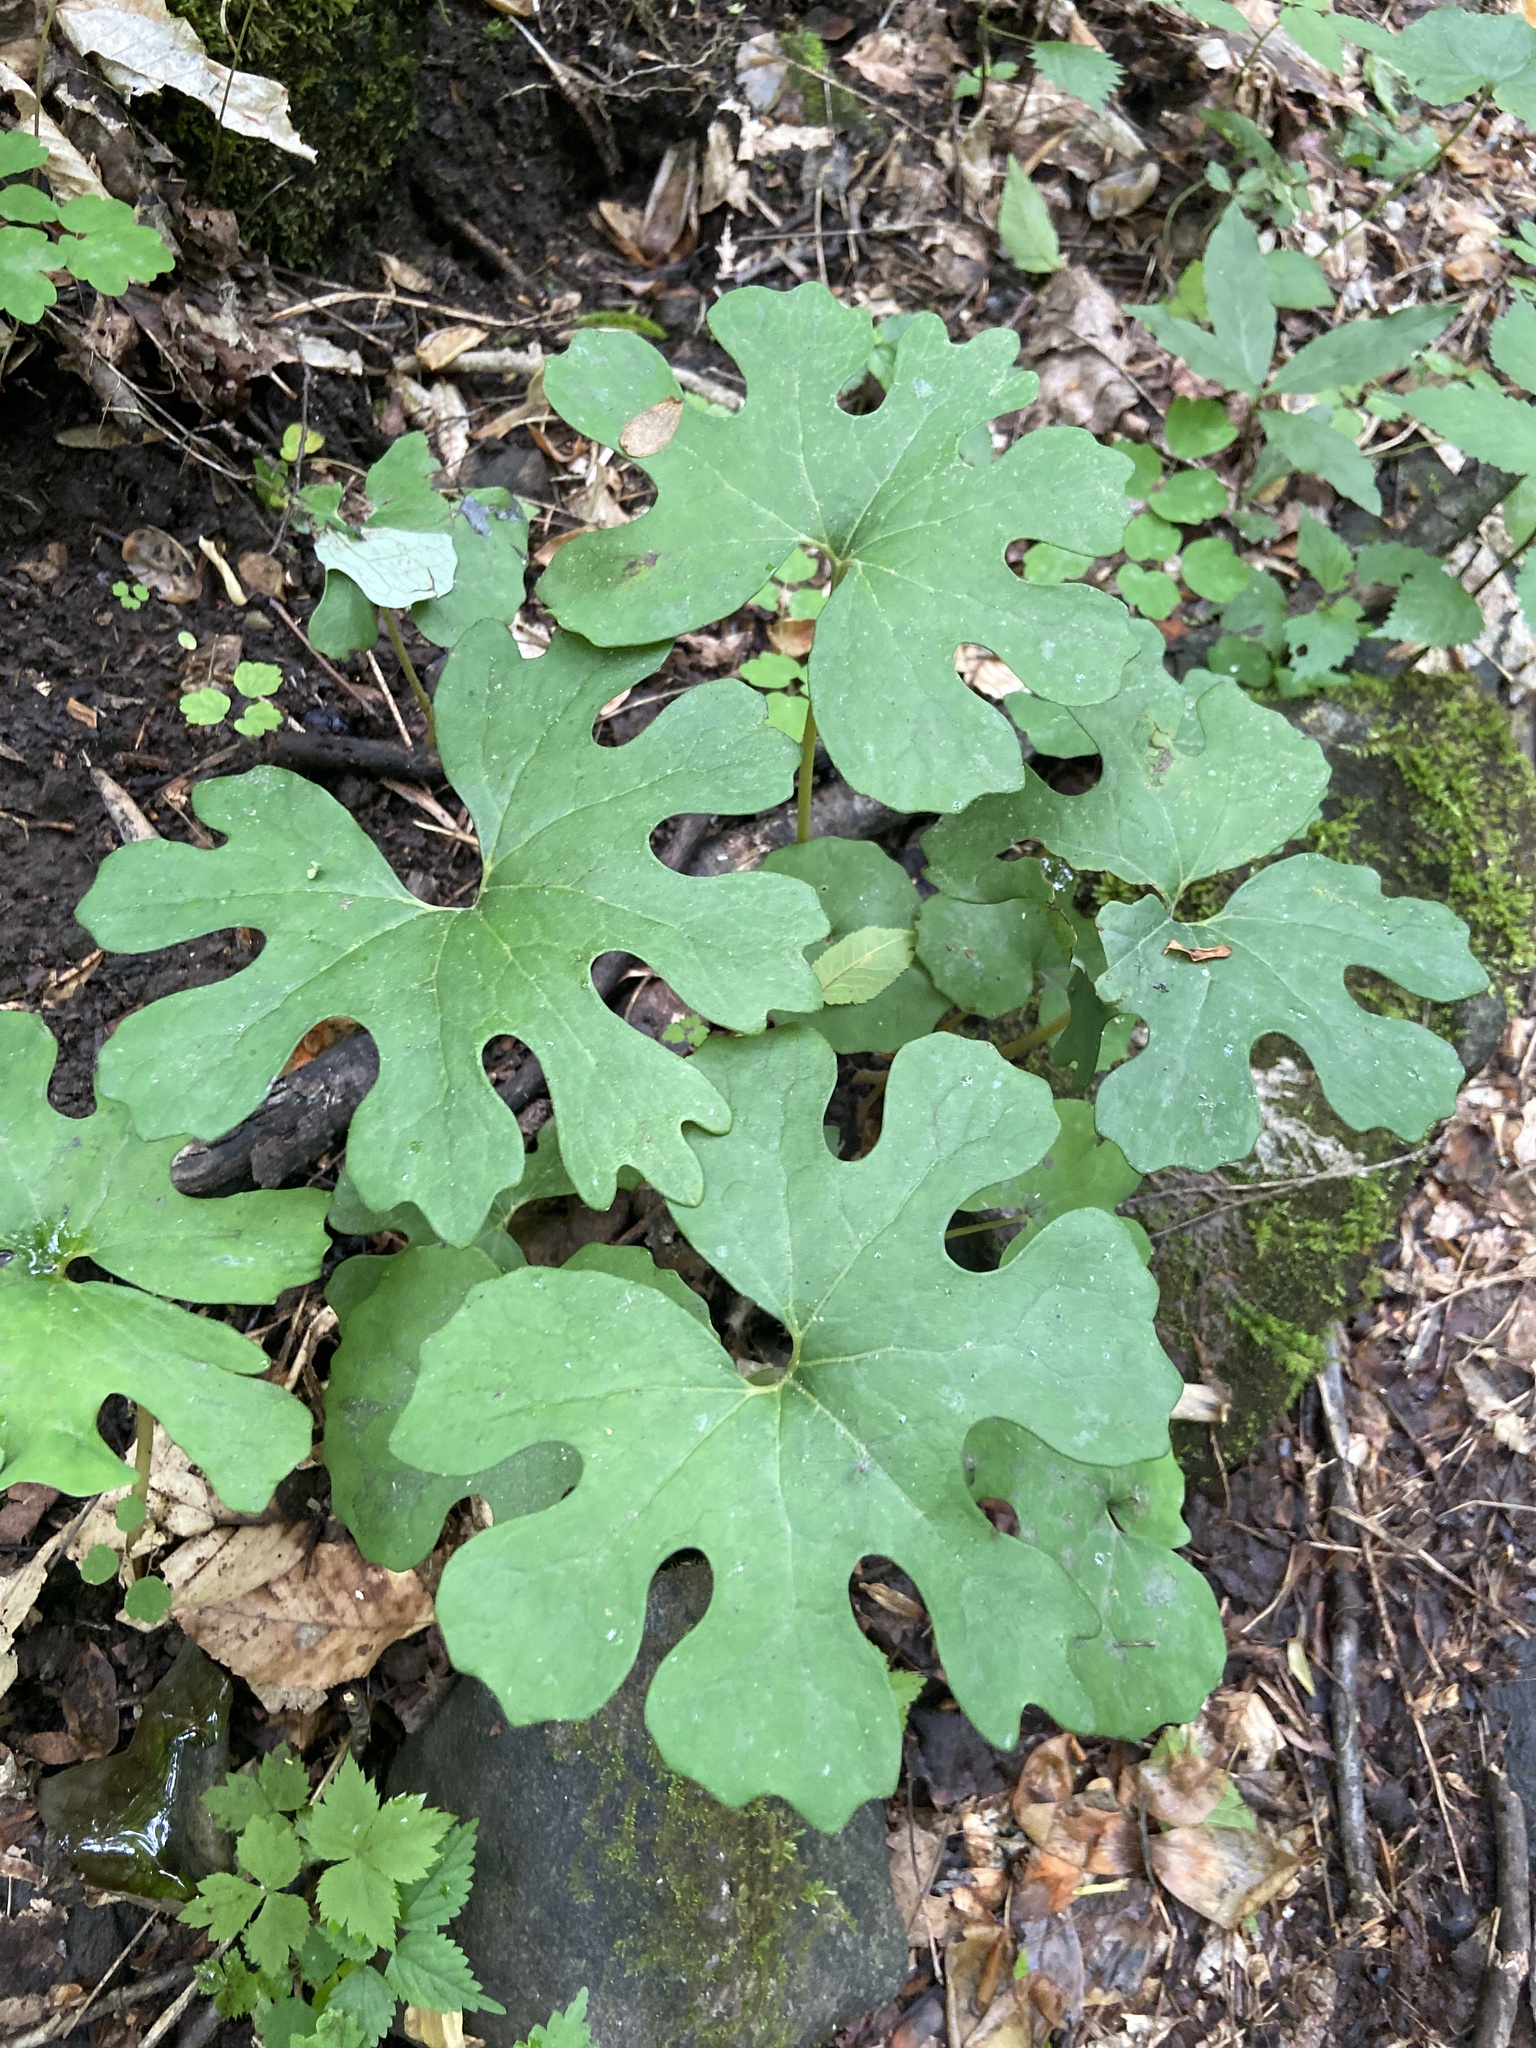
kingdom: Plantae
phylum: Tracheophyta
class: Magnoliopsida
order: Ranunculales
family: Papaveraceae
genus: Sanguinaria
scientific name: Sanguinaria canadensis
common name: Bloodroot
